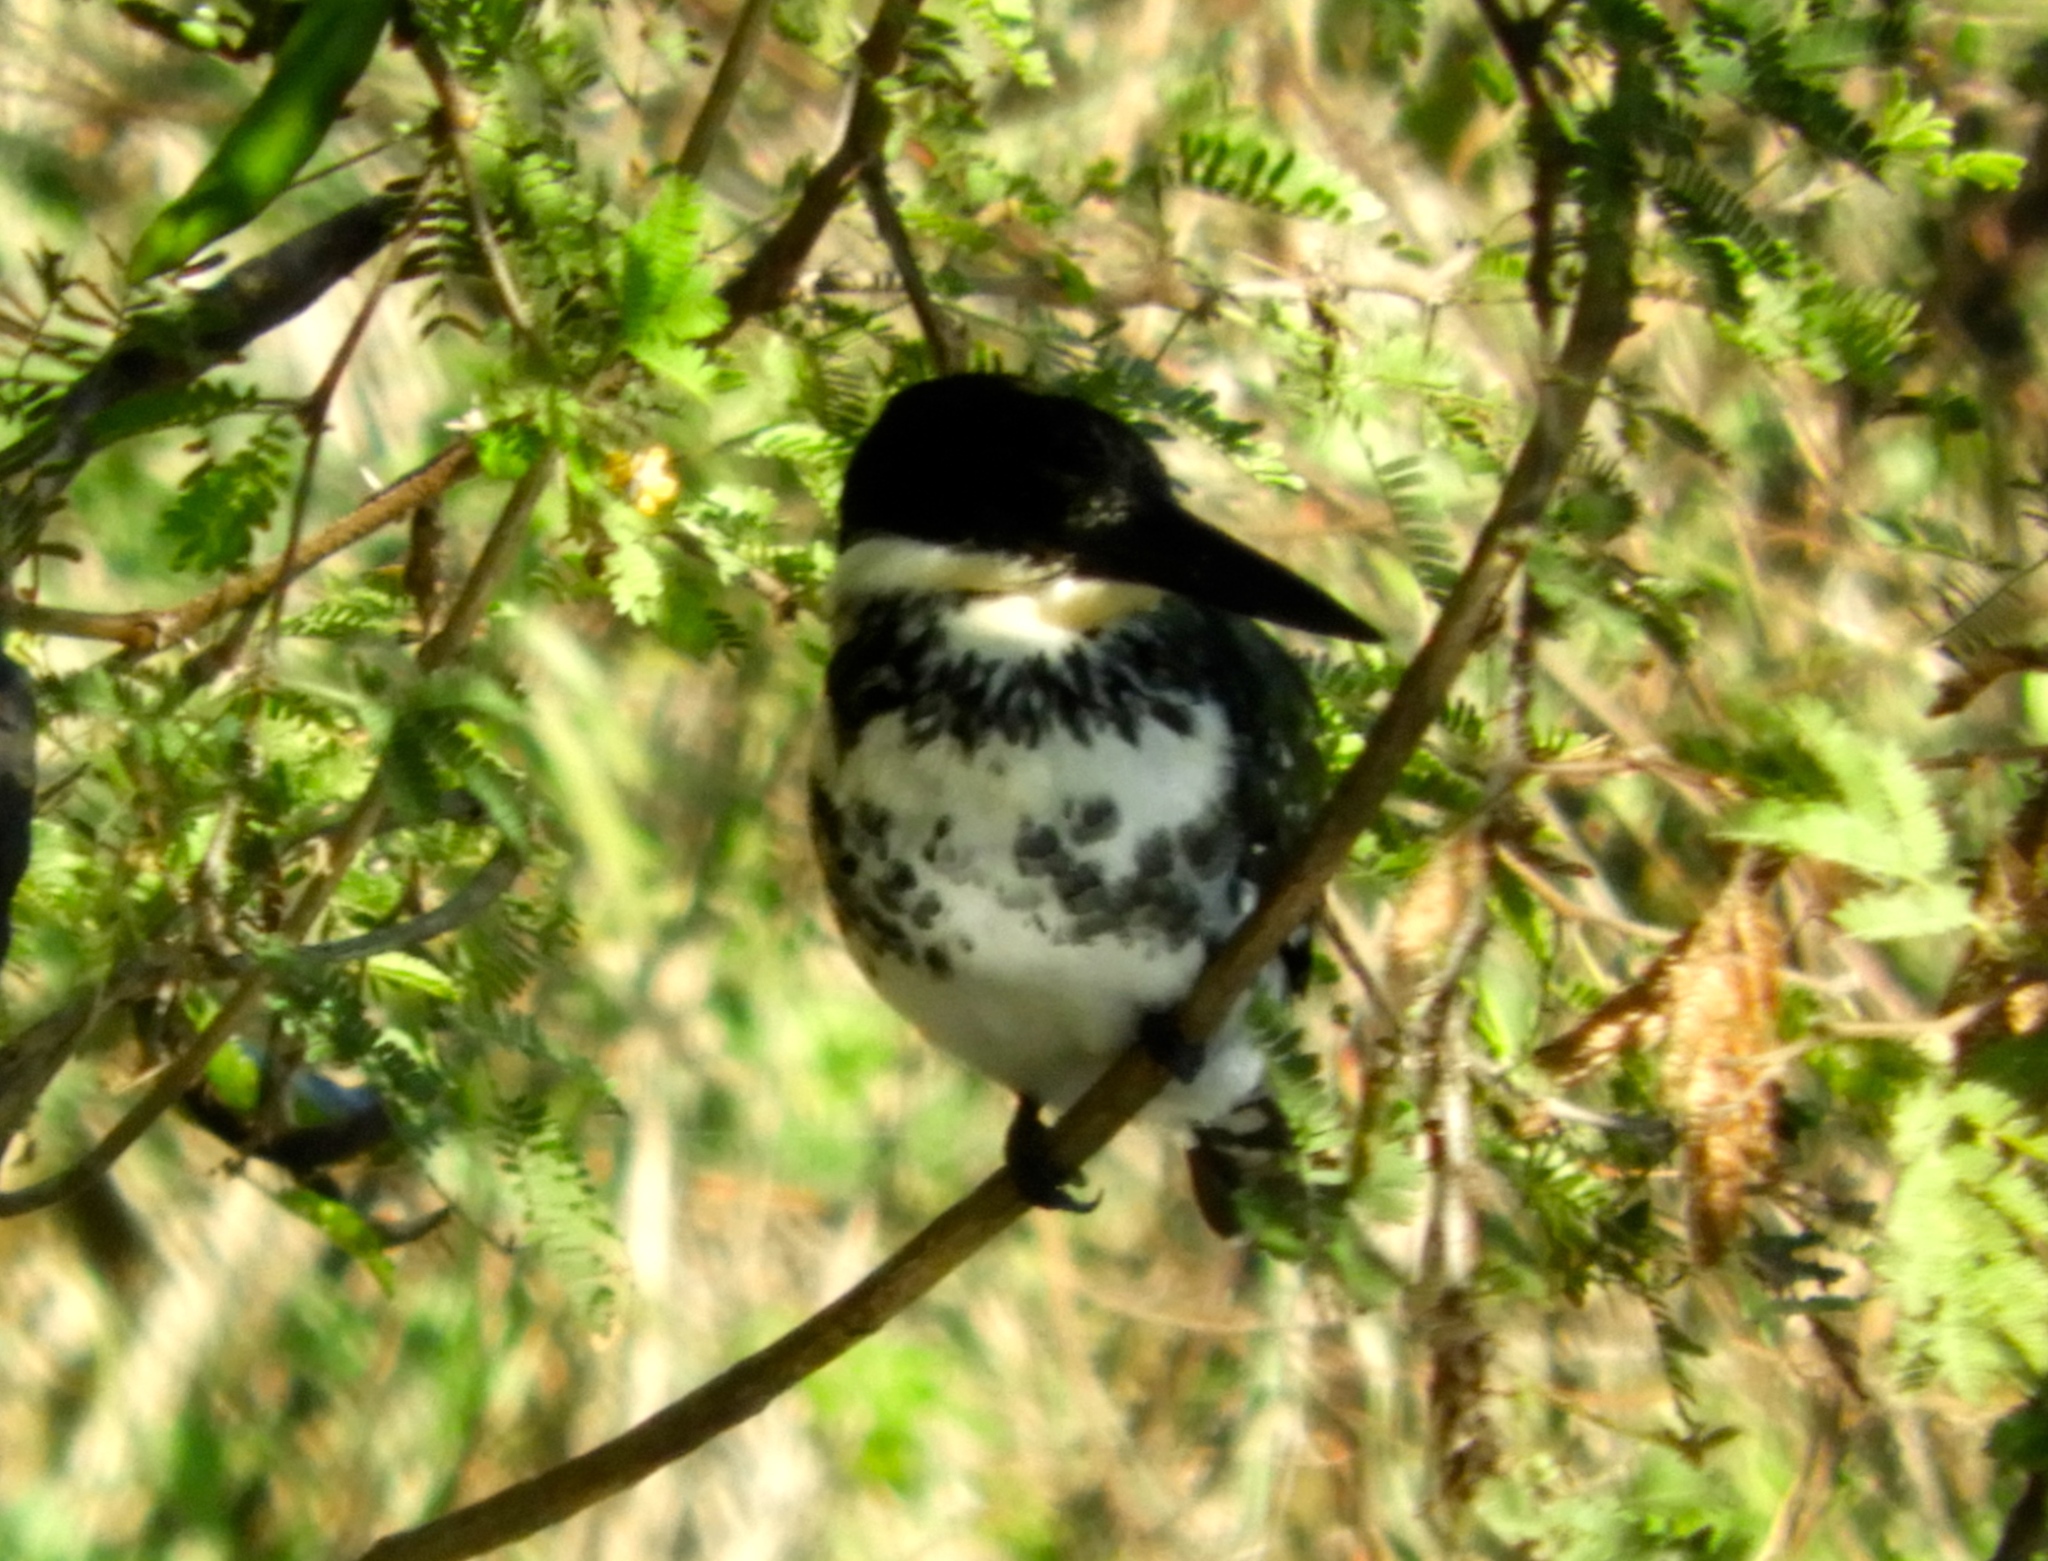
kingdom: Animalia
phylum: Chordata
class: Aves
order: Coraciiformes
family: Alcedinidae
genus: Chloroceryle
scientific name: Chloroceryle americana
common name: Green kingfisher
